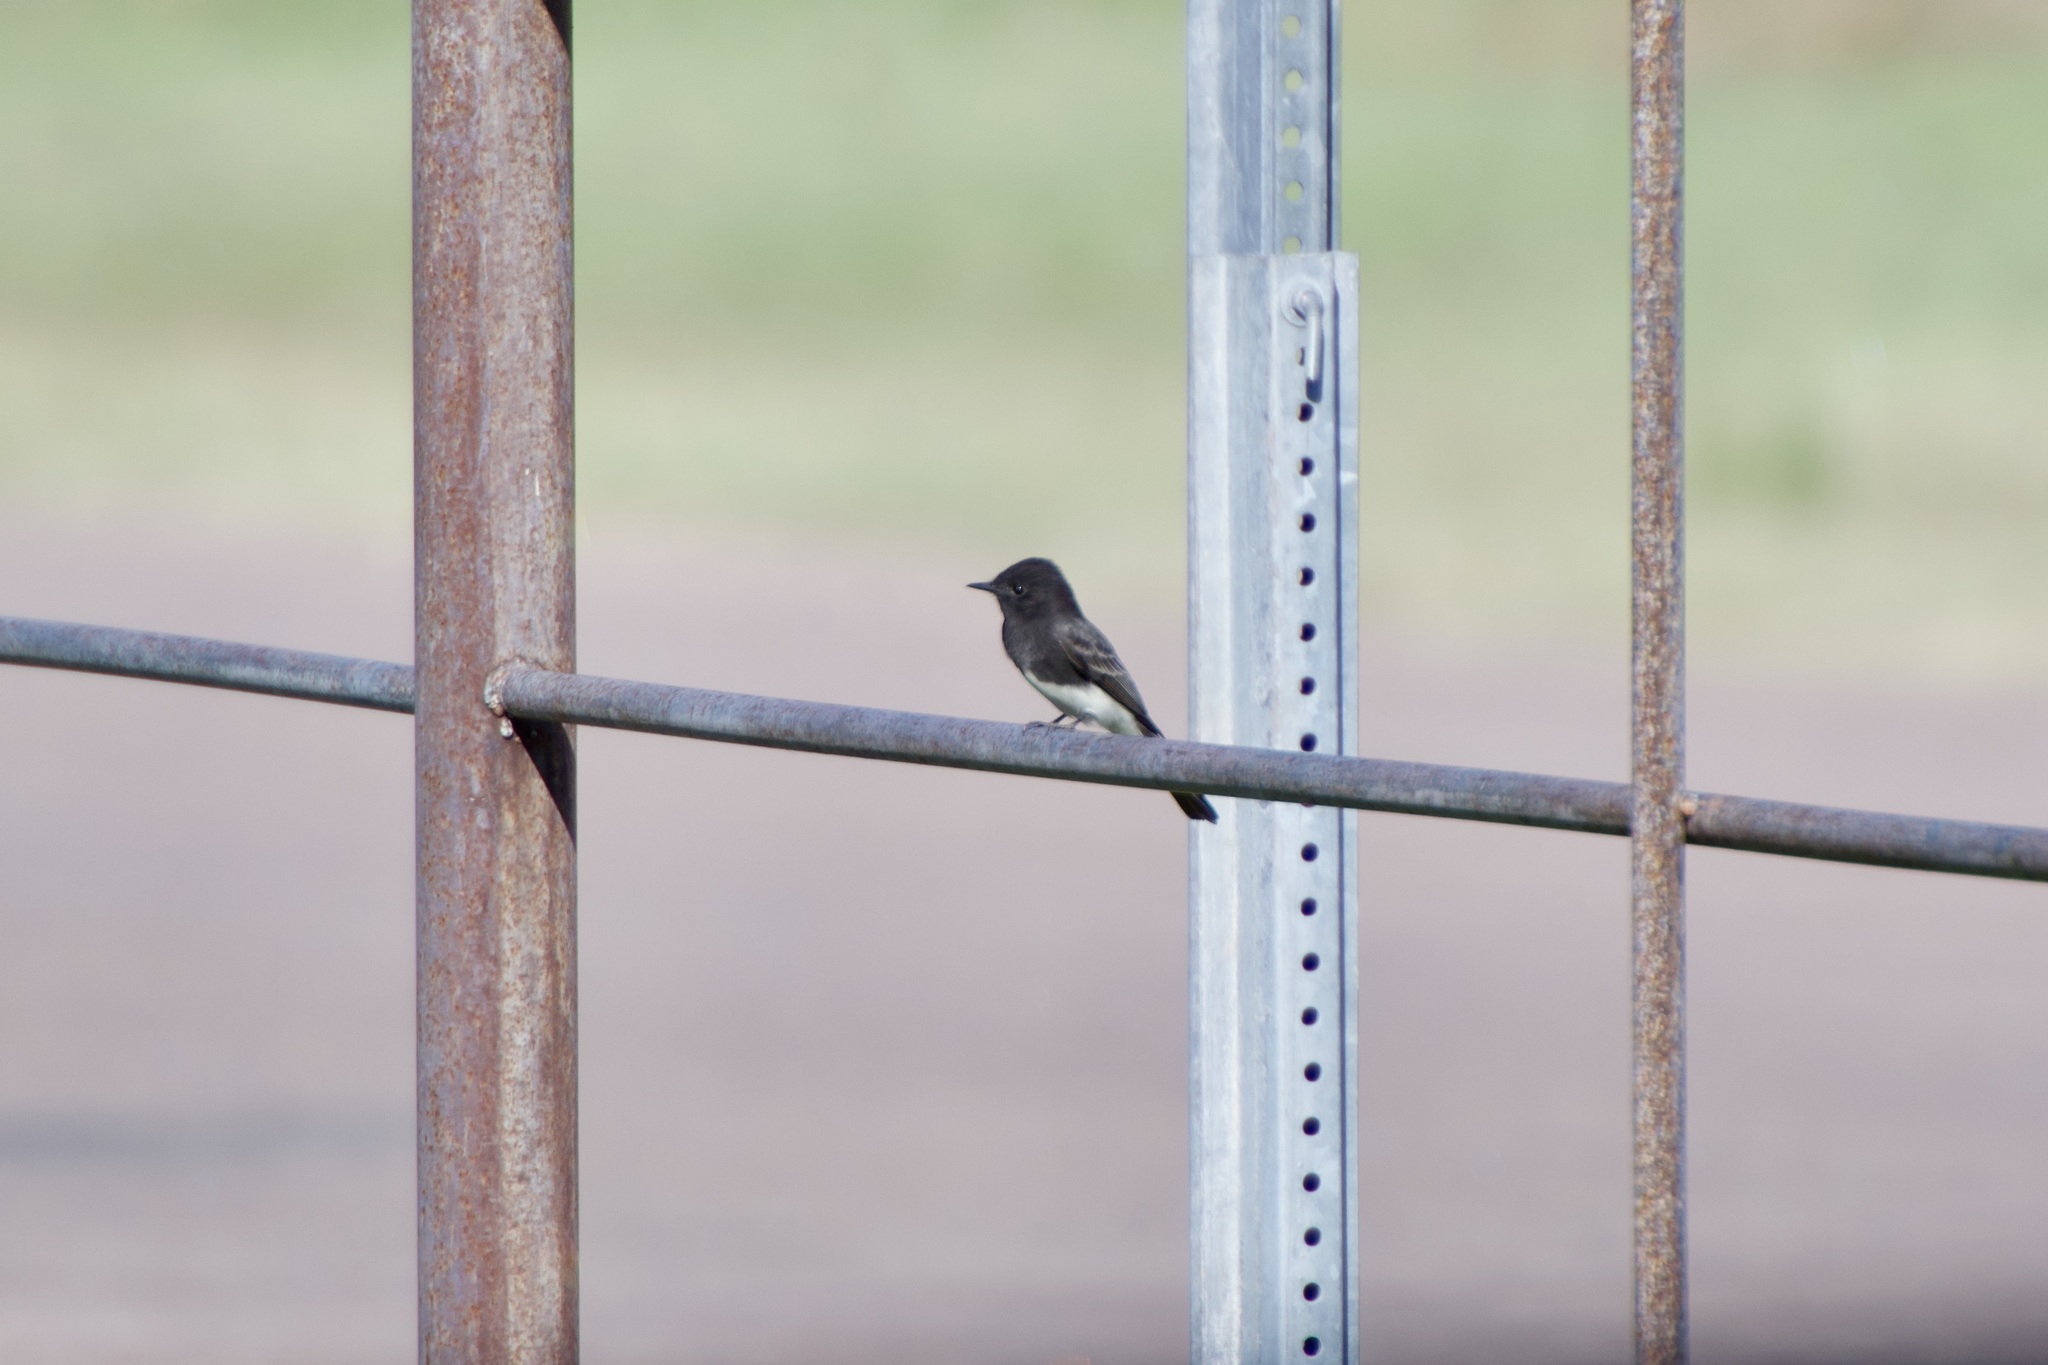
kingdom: Animalia
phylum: Chordata
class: Aves
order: Passeriformes
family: Tyrannidae
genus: Sayornis
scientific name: Sayornis nigricans
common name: Black phoebe
